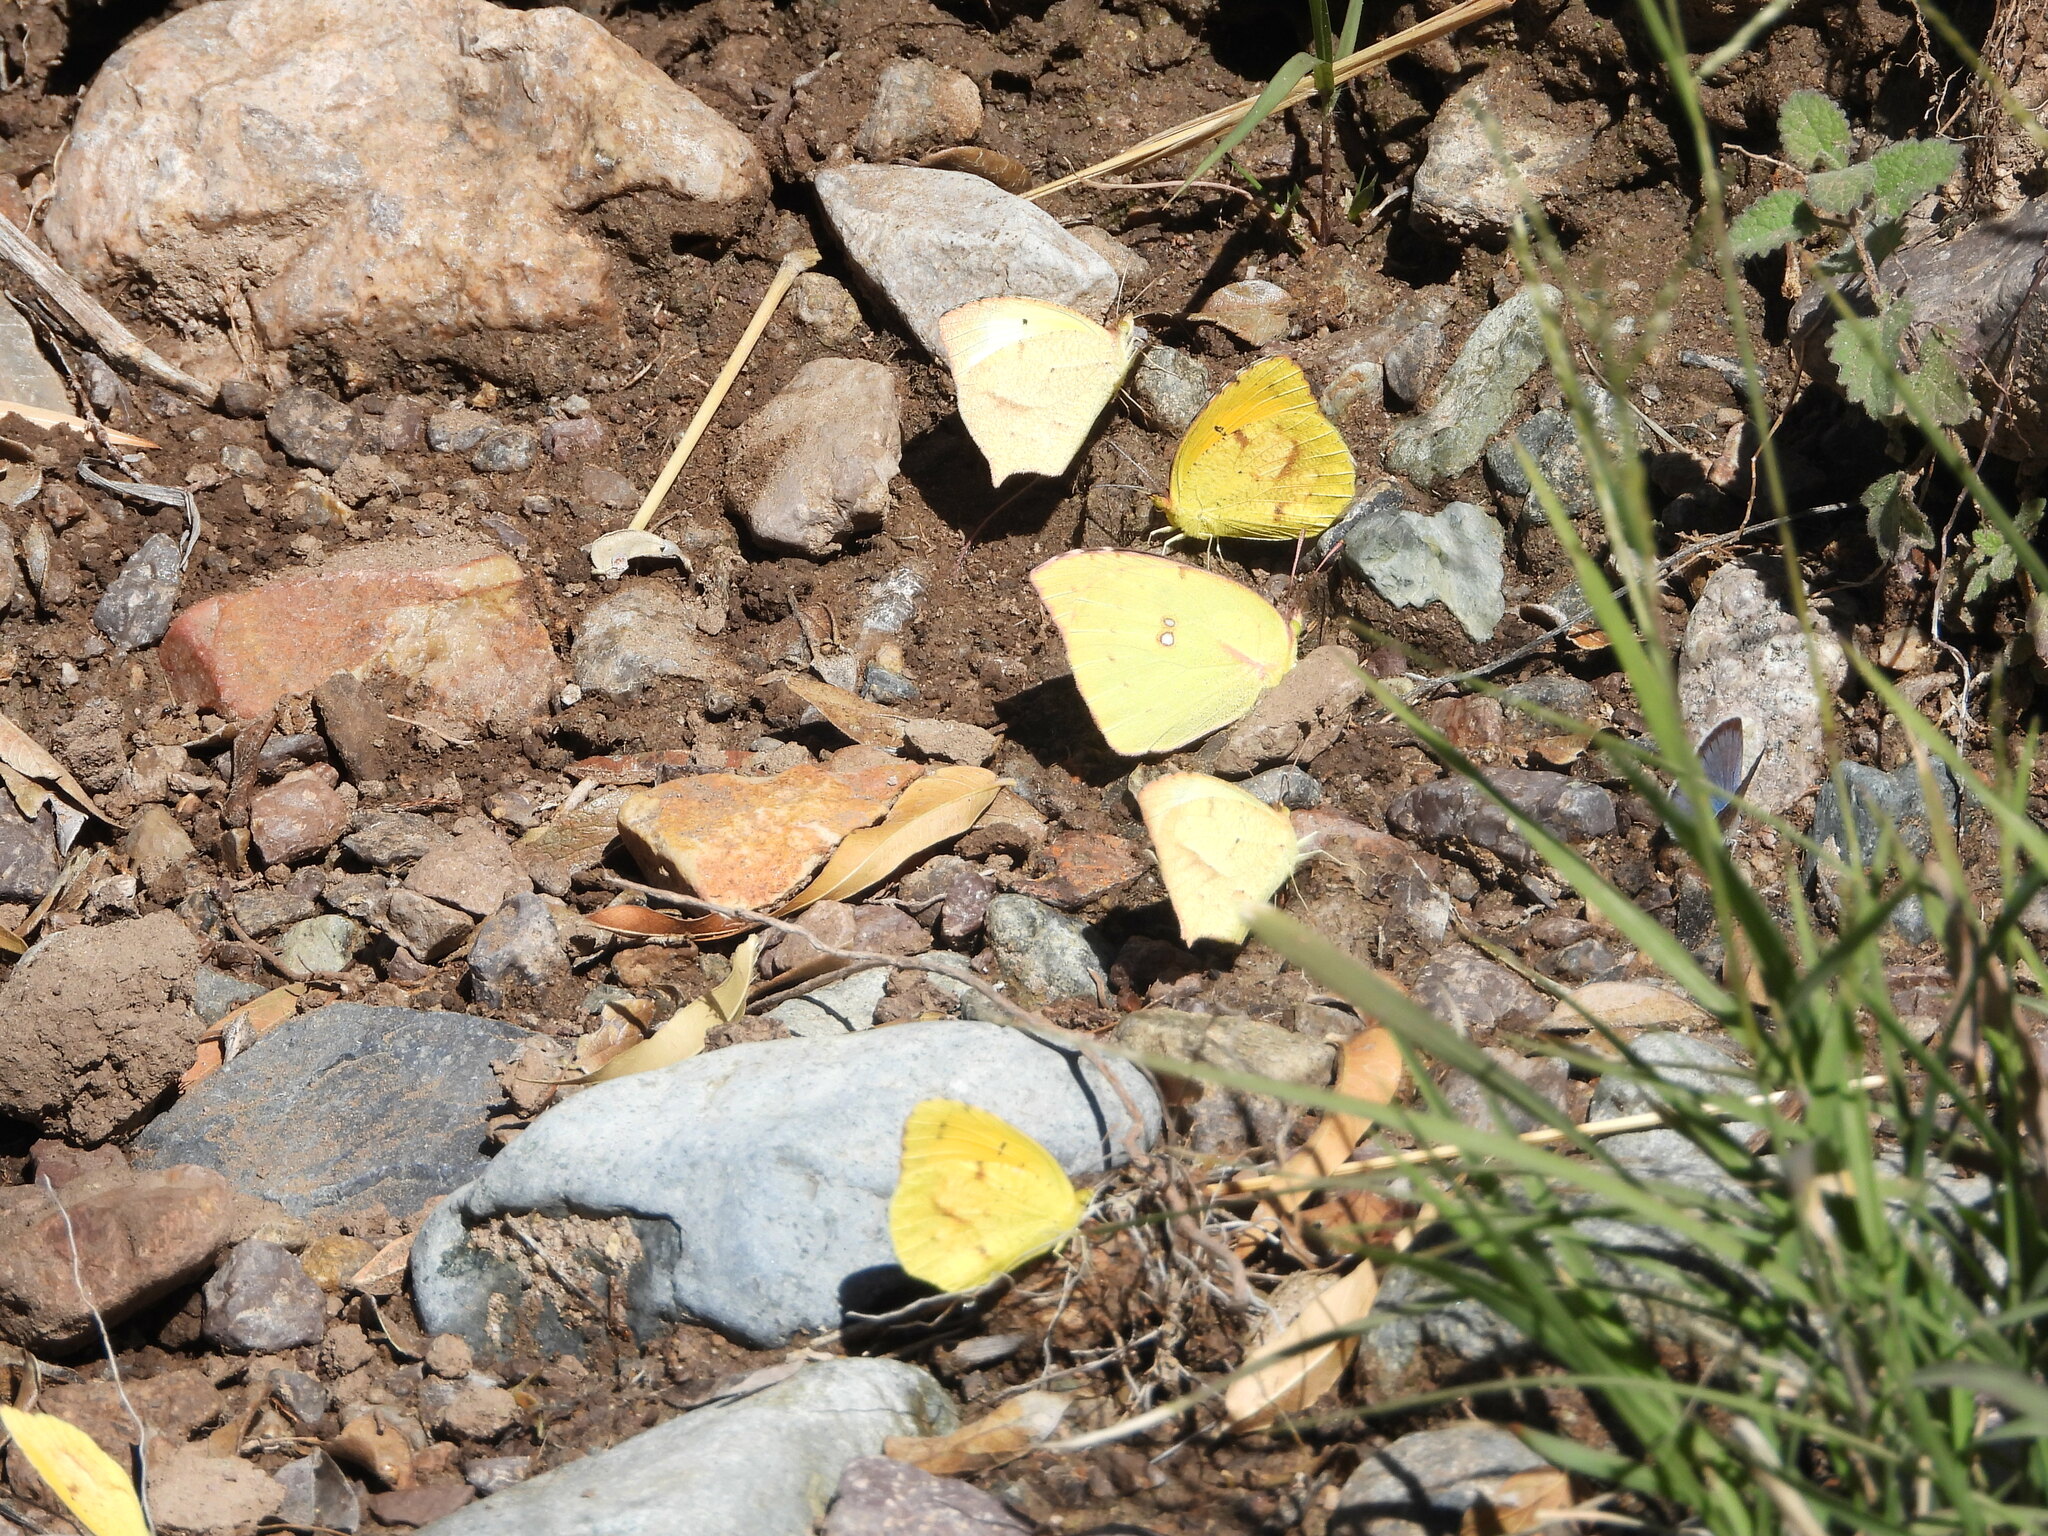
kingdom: Animalia
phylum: Arthropoda
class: Insecta
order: Lepidoptera
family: Pieridae
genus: Zerene
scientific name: Zerene cesonia
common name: Southern dogface
